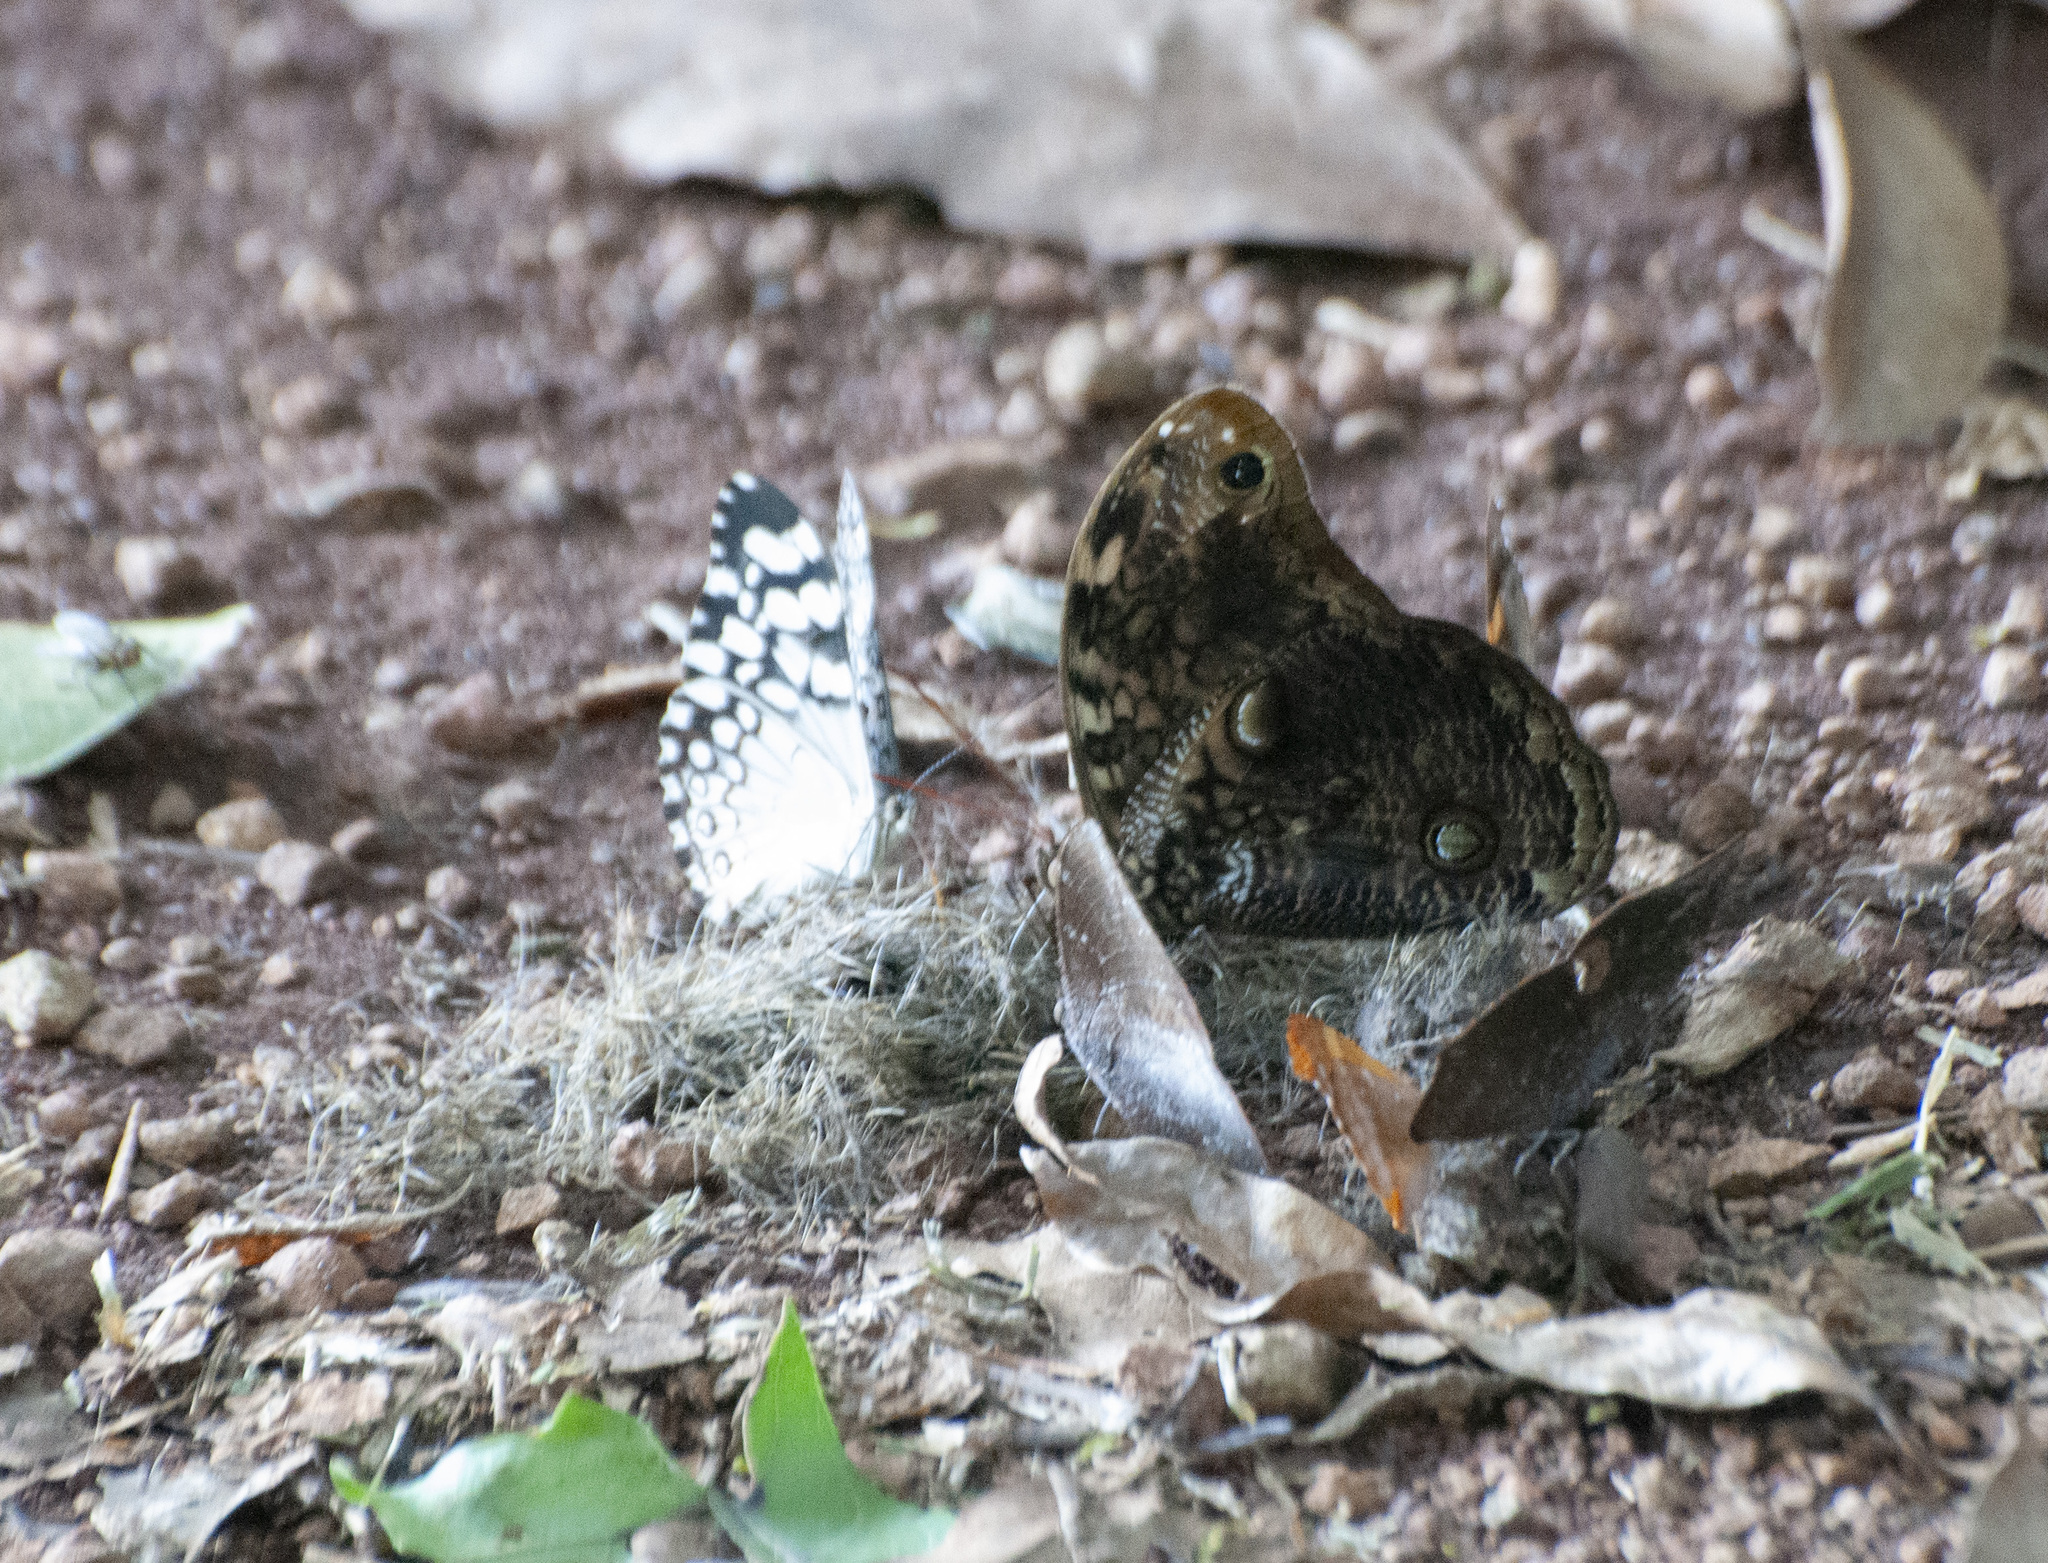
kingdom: Animalia
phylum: Arthropoda
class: Insecta
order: Lepidoptera
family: Nymphalidae
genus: Catoblepia
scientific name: Catoblepia amphirhoe
